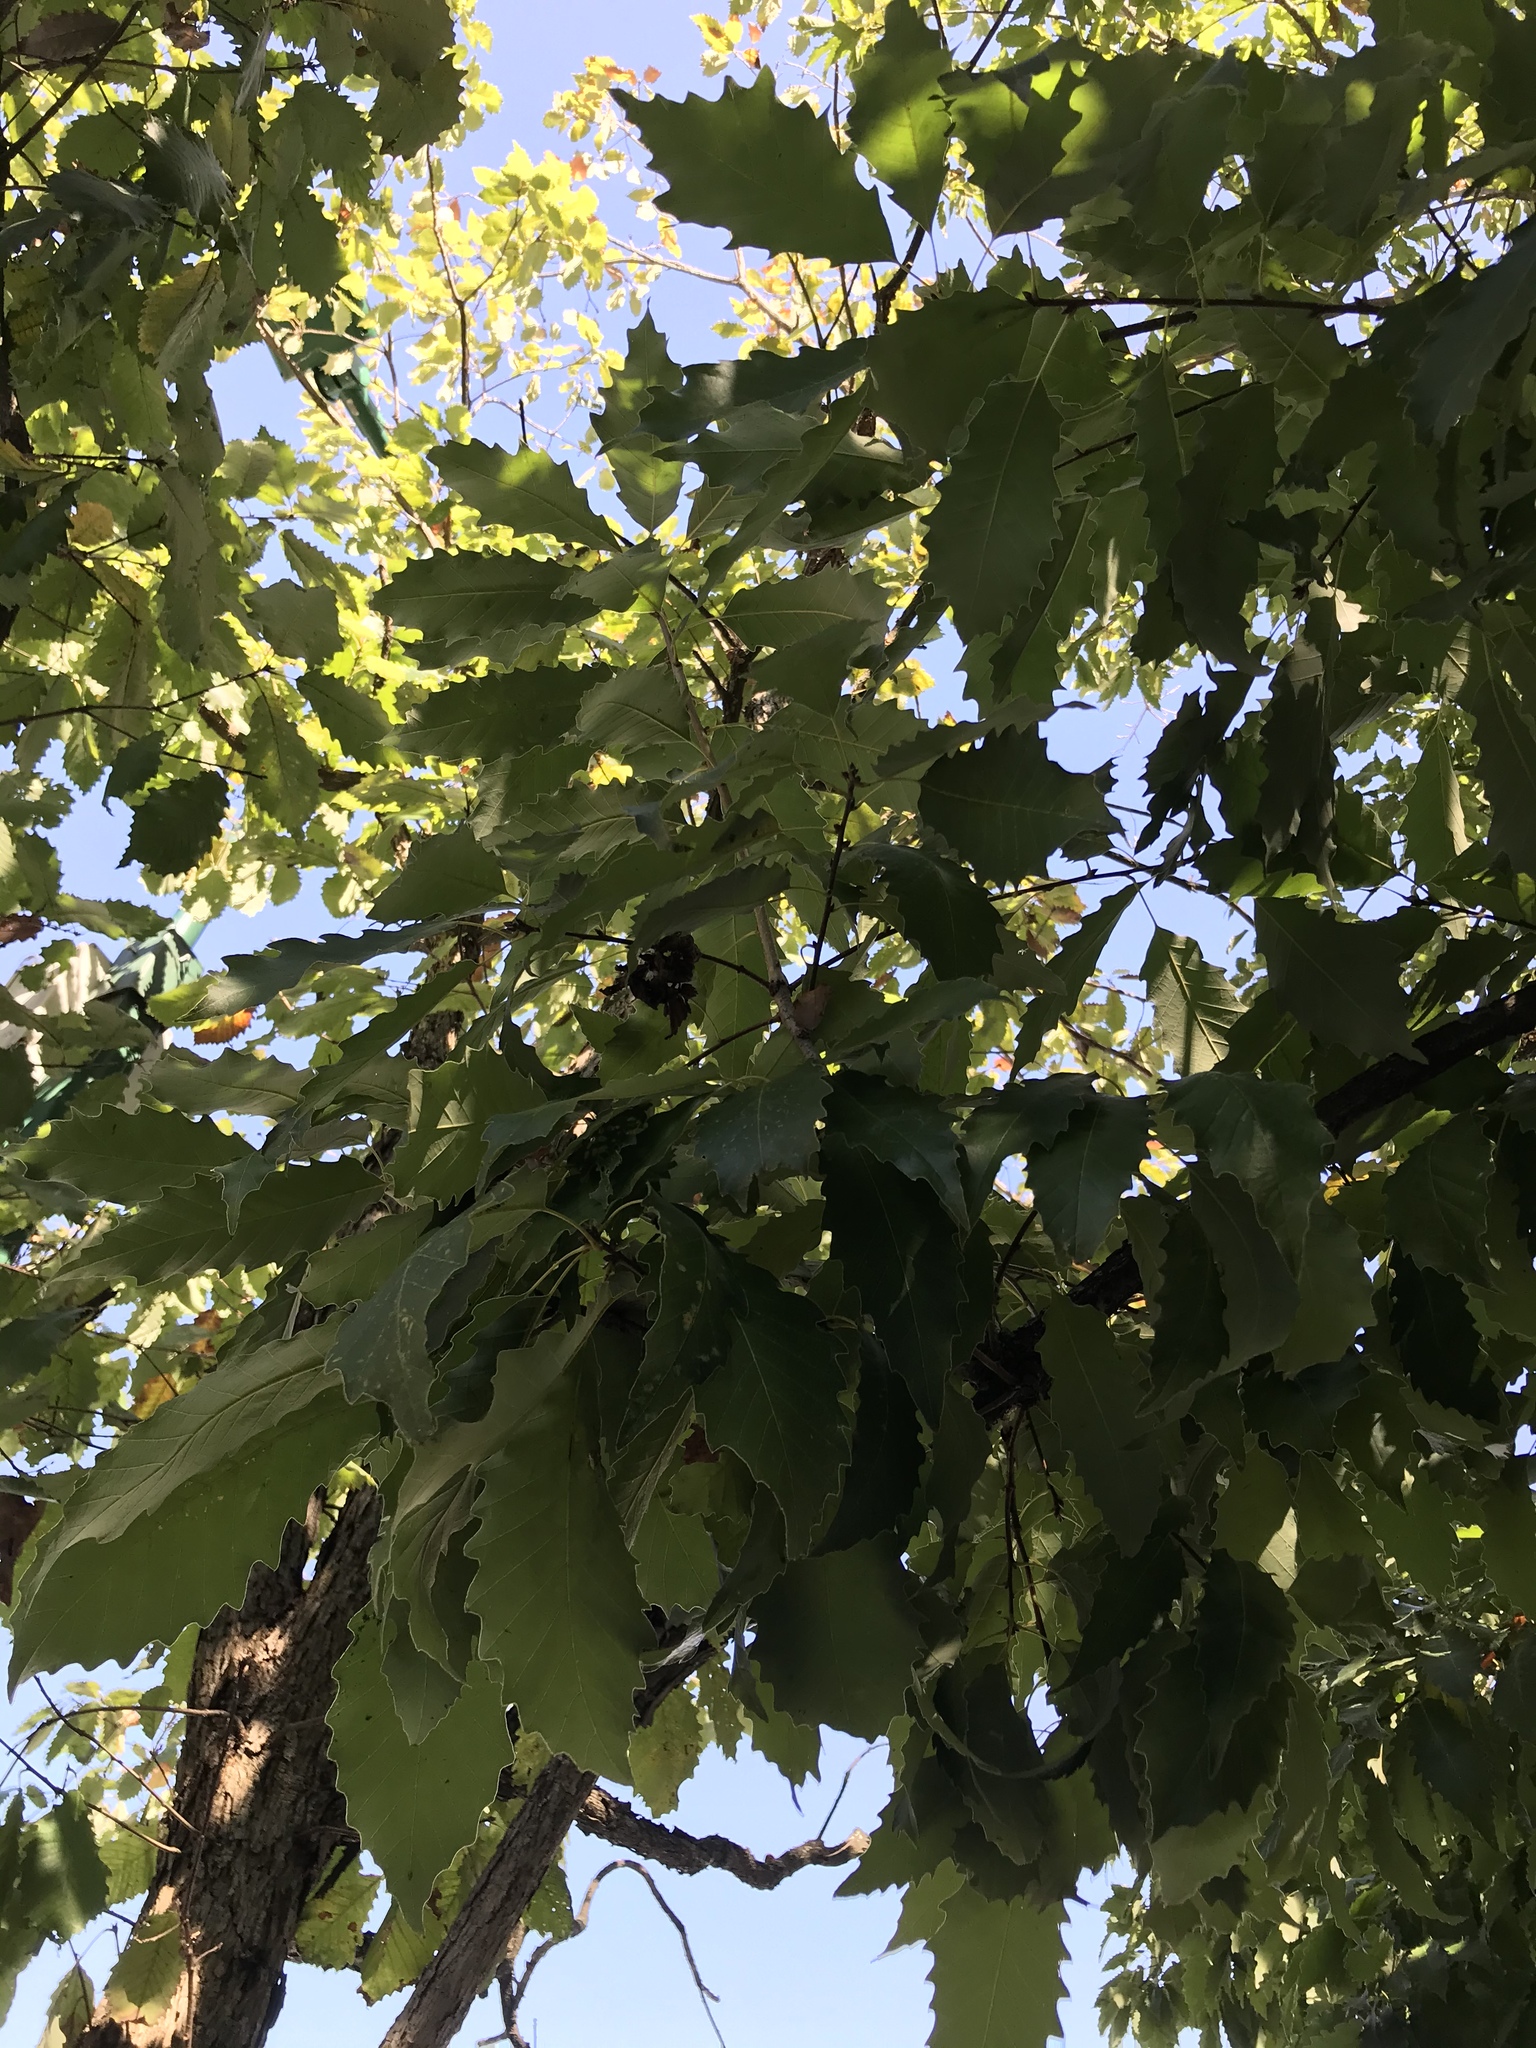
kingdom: Plantae
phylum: Tracheophyta
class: Magnoliopsida
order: Fagales
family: Fagaceae
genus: Quercus
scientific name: Quercus montana
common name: Chestnut oak
